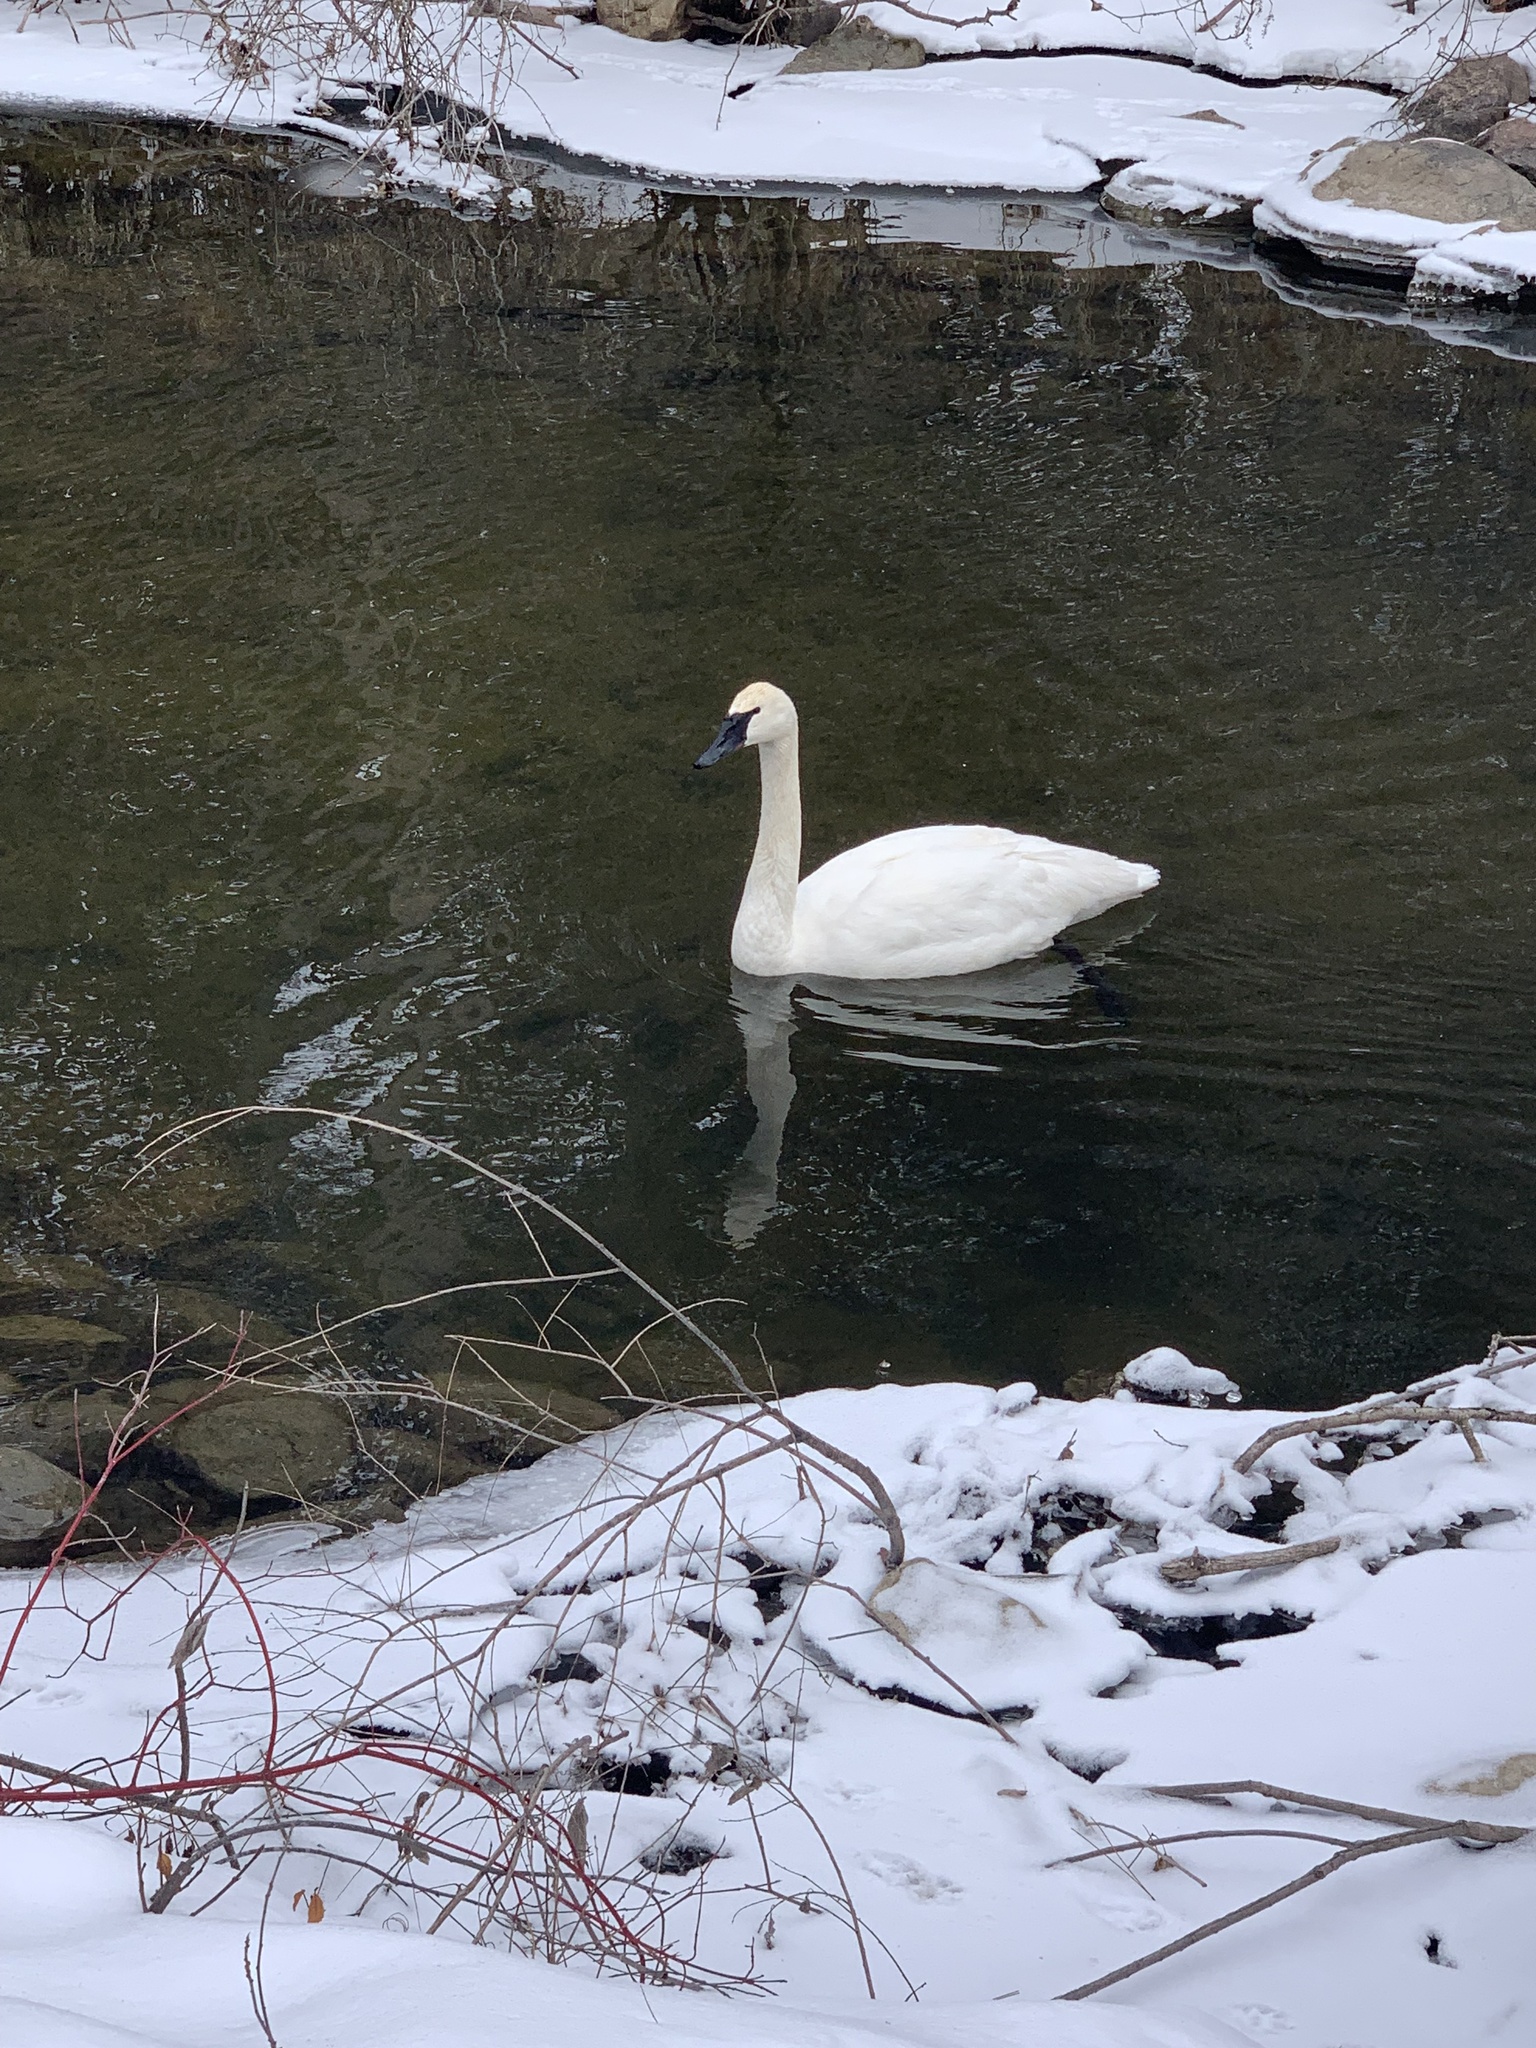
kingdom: Animalia
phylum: Chordata
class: Aves
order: Anseriformes
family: Anatidae
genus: Cygnus
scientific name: Cygnus buccinator
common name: Trumpeter swan
